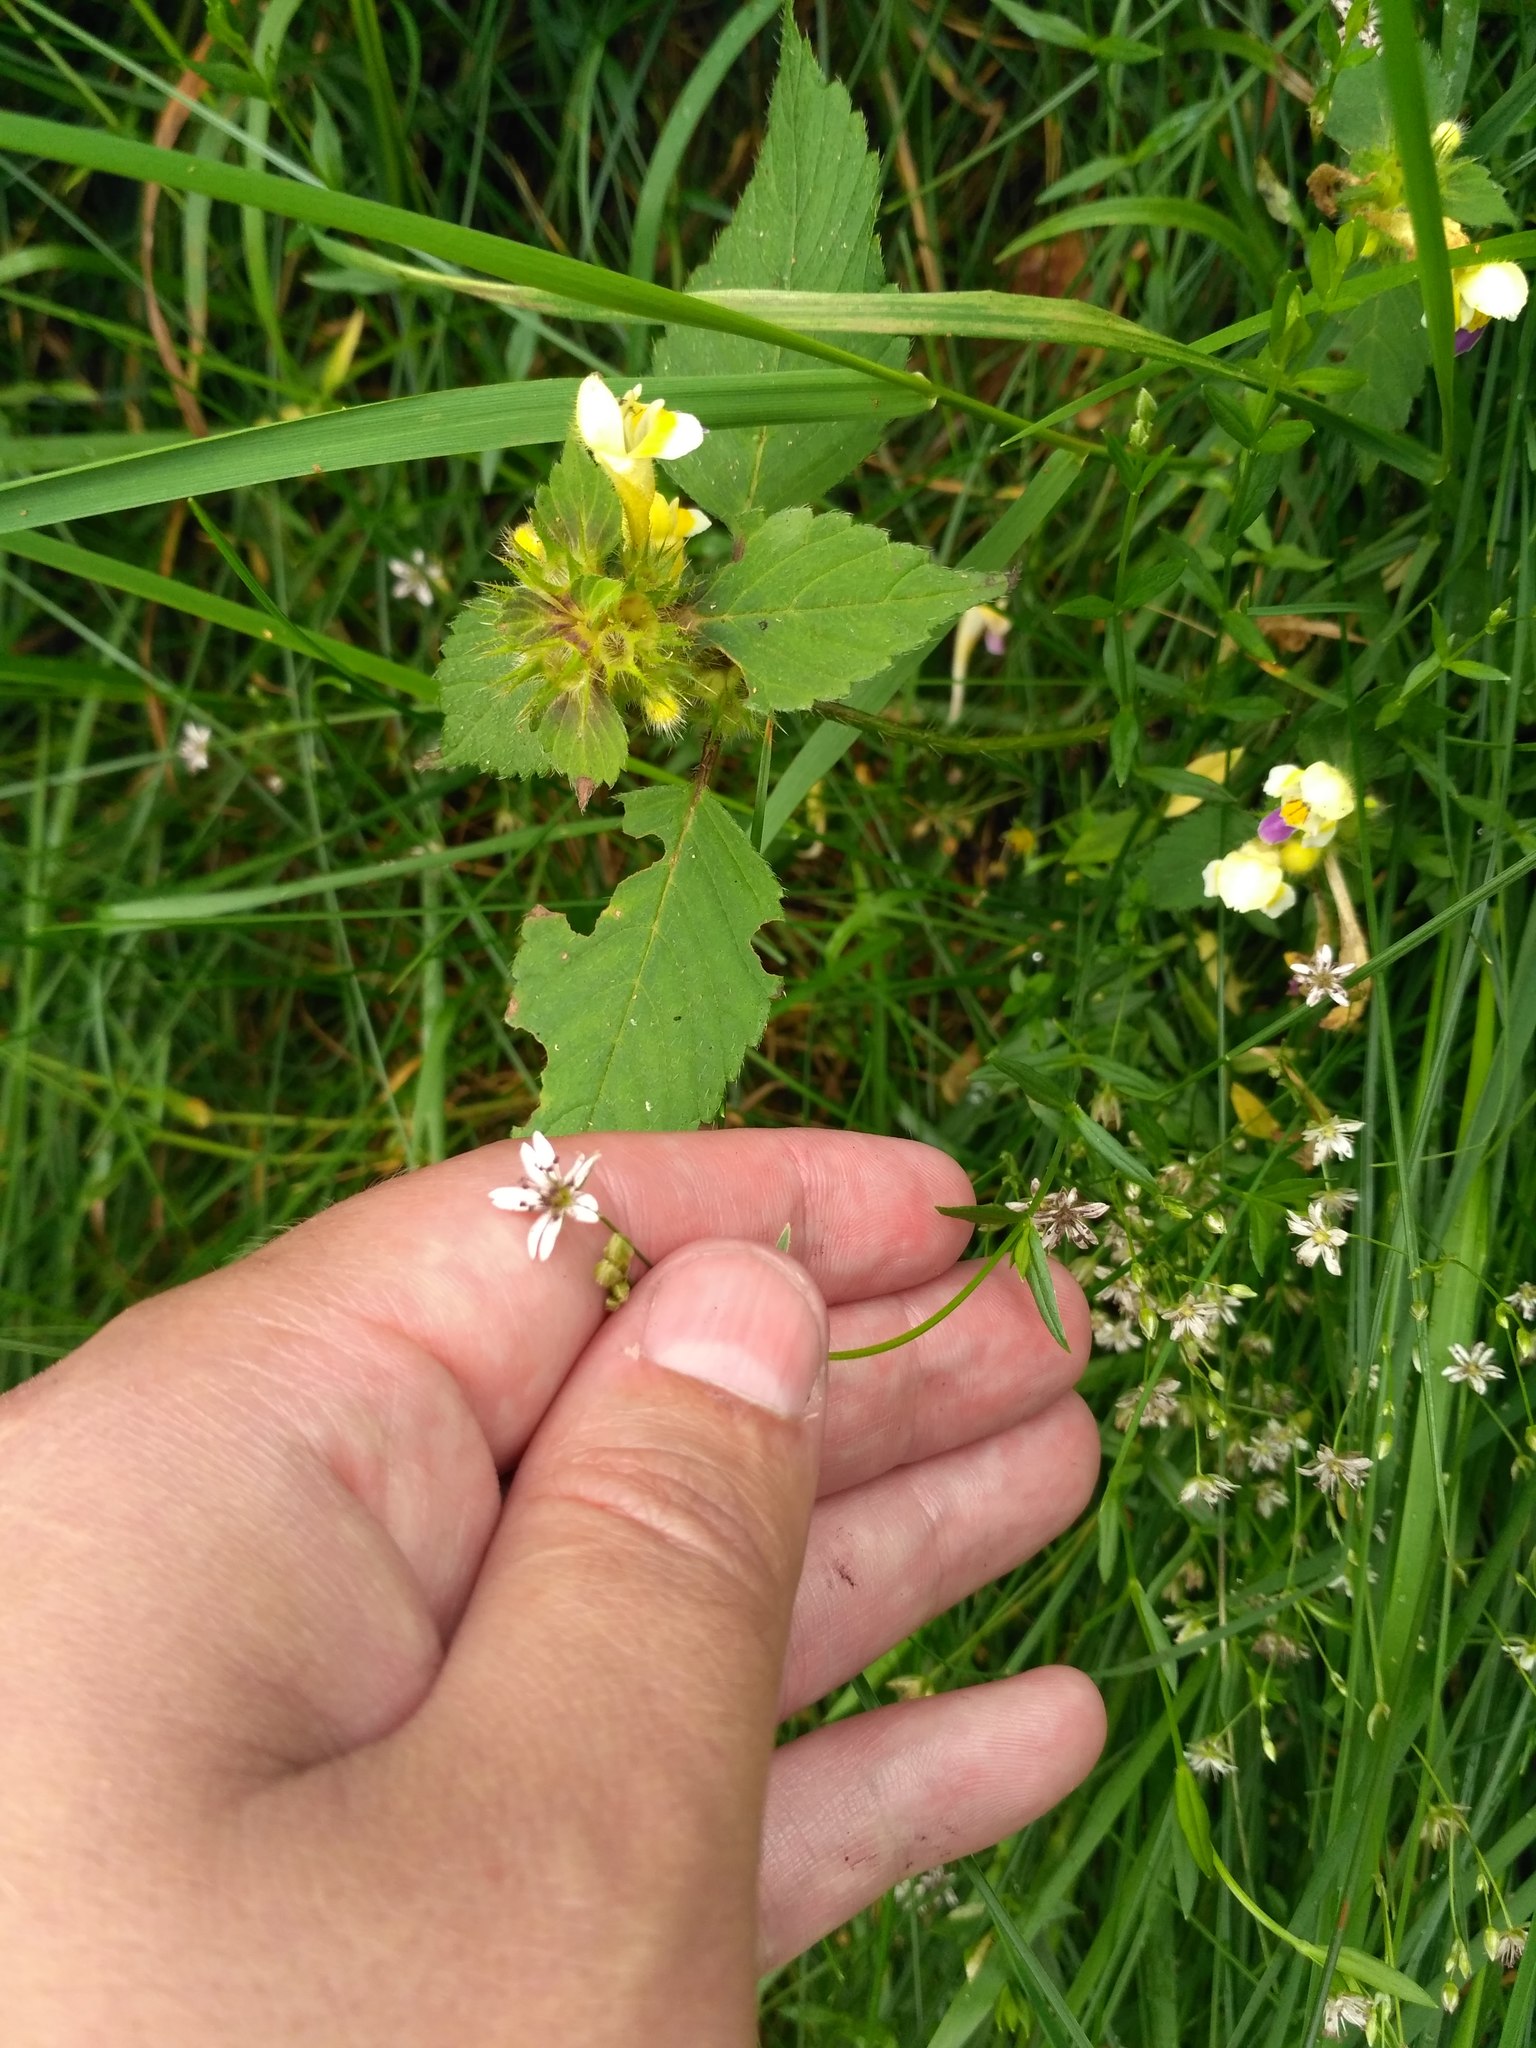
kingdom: Plantae
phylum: Tracheophyta
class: Magnoliopsida
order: Caryophyllales
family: Caryophyllaceae
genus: Stellaria
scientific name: Stellaria graminea
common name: Grass-like starwort
